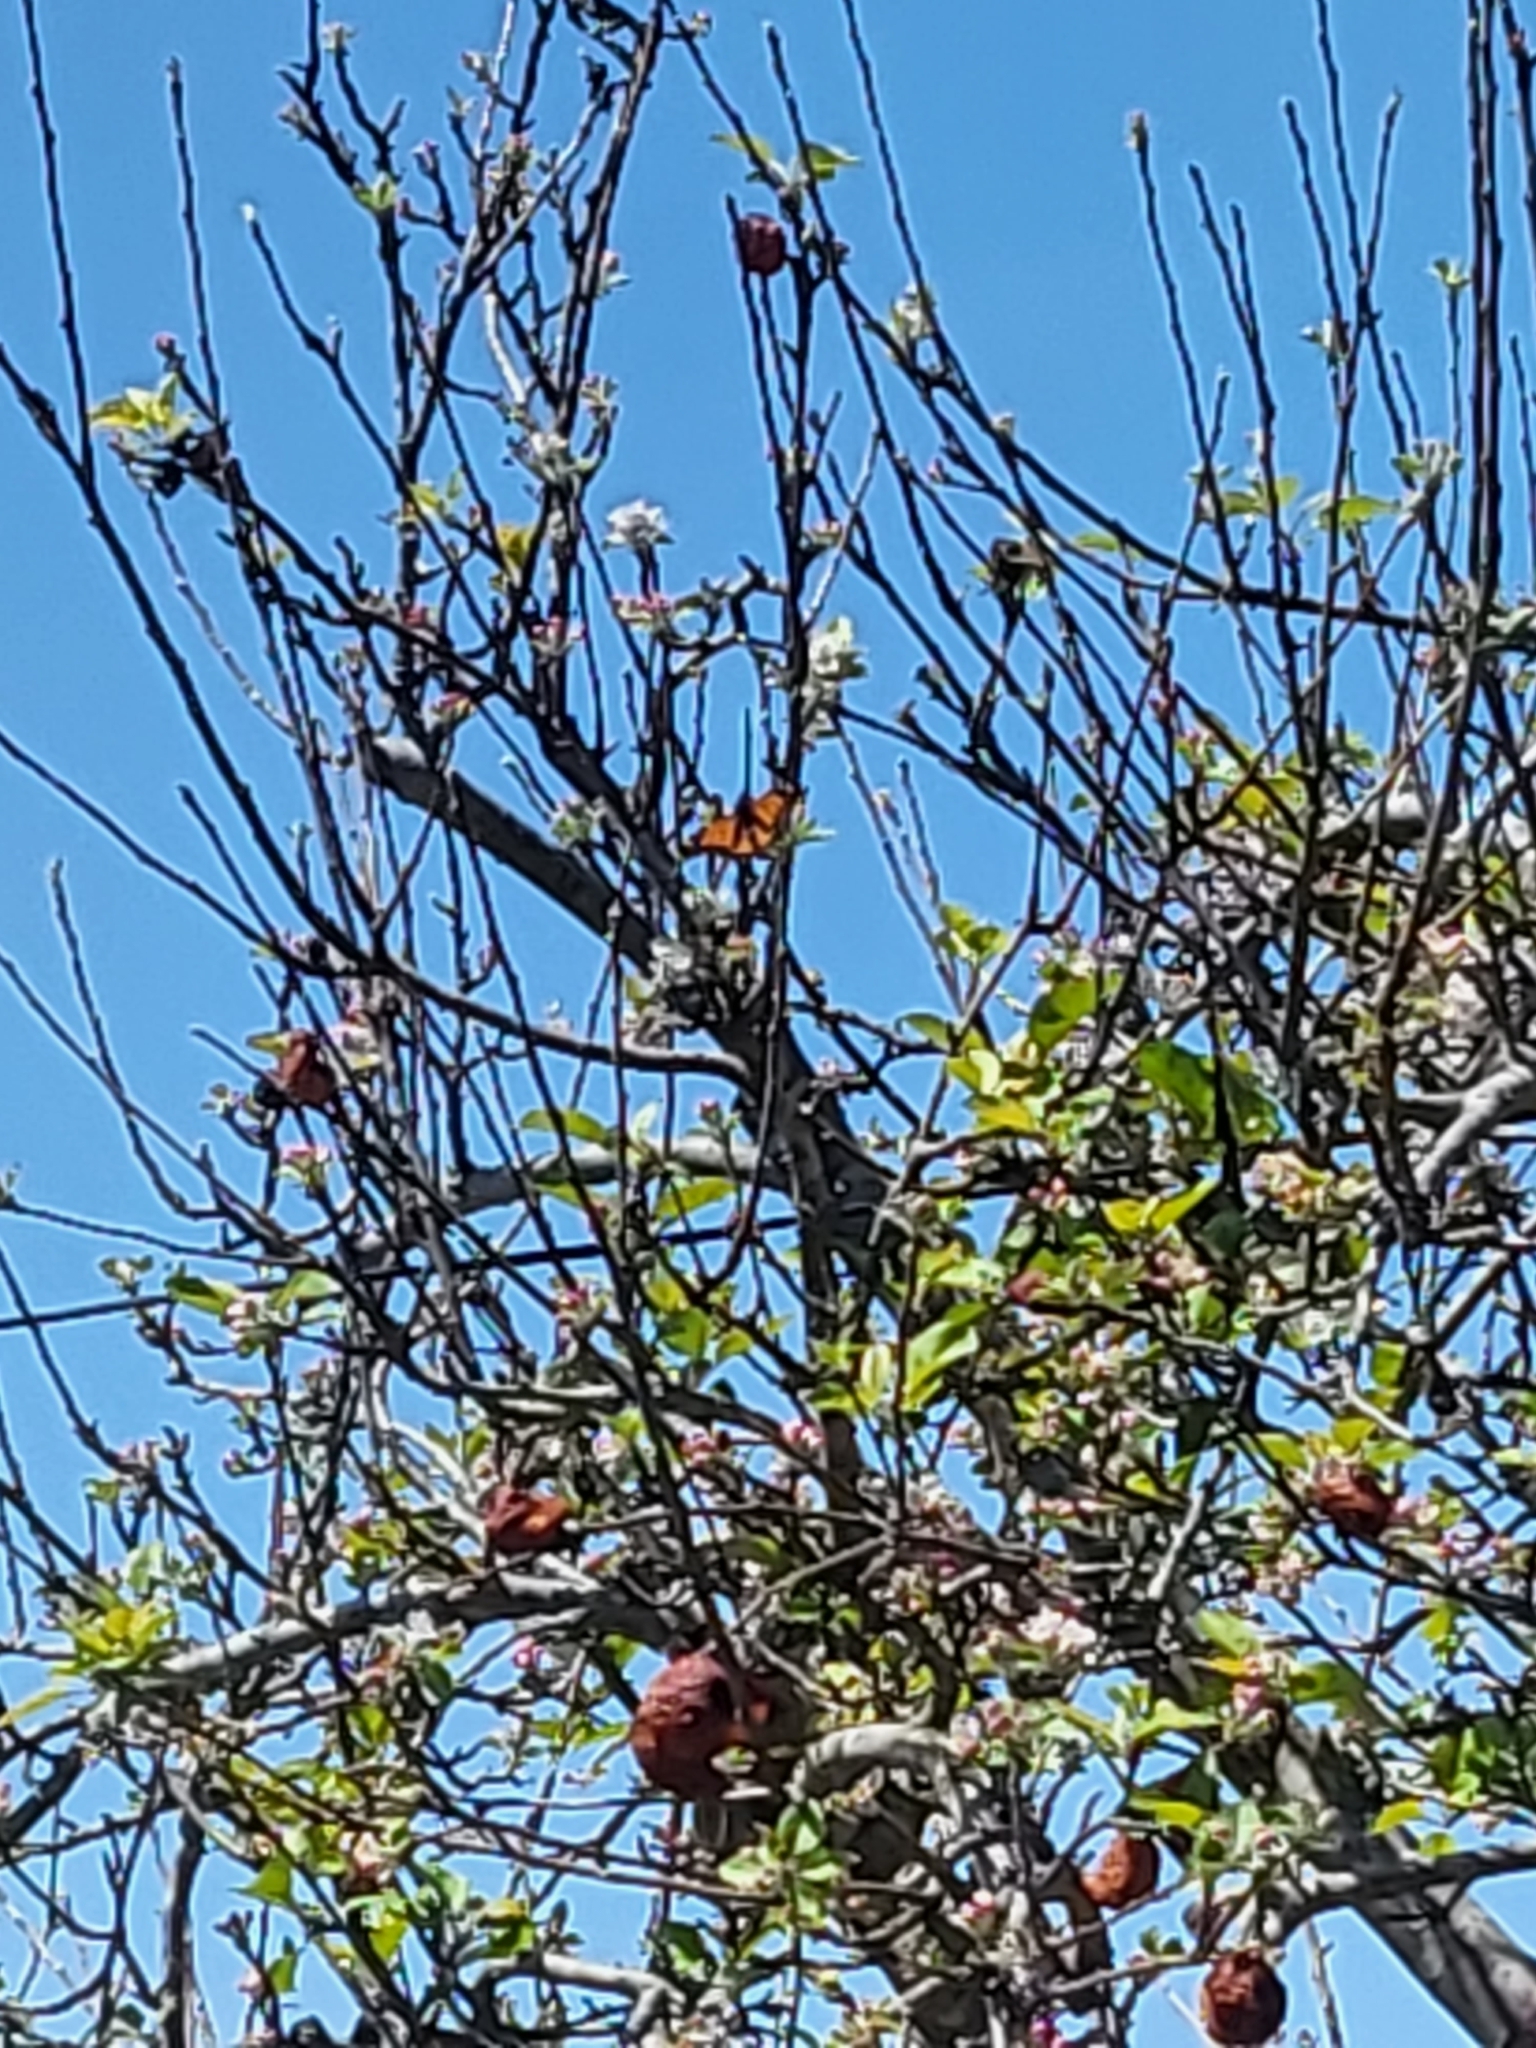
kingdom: Animalia
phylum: Arthropoda
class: Insecta
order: Lepidoptera
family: Nymphalidae
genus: Danaus
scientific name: Danaus plexippus
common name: Monarch
